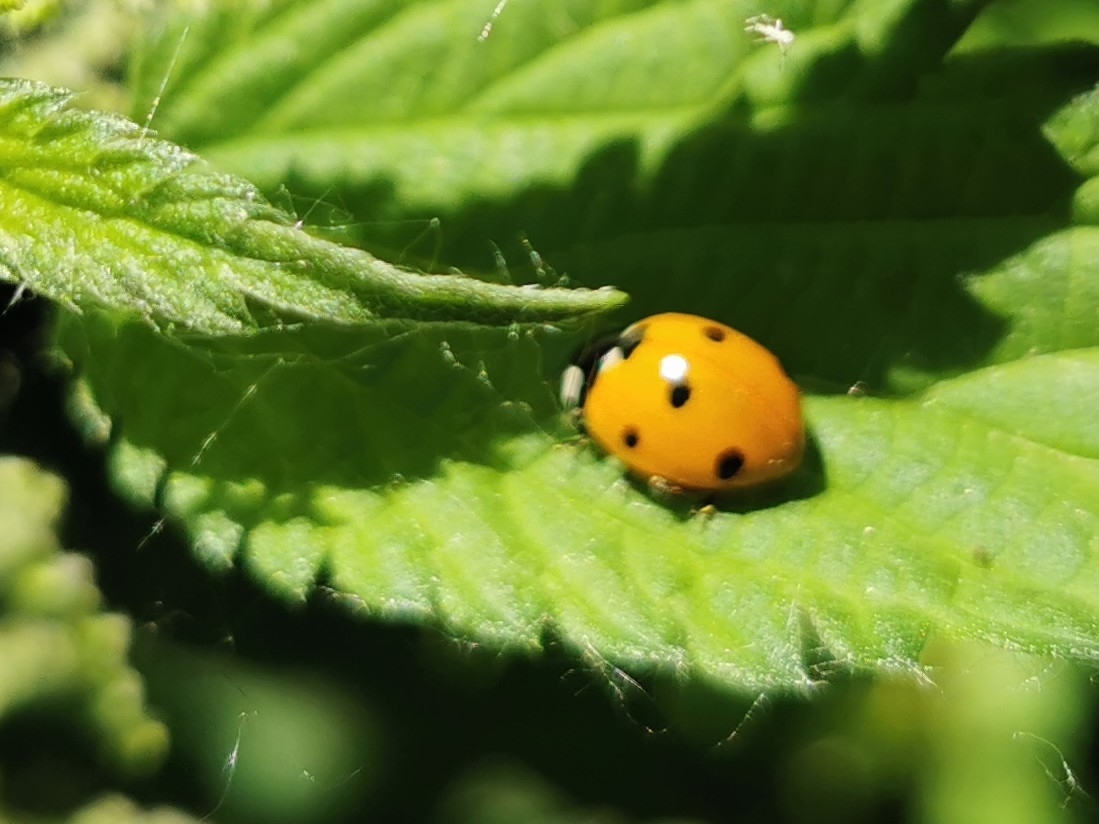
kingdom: Animalia
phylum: Arthropoda
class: Insecta
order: Coleoptera
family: Coccinellidae
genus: Coccinella
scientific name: Coccinella septempunctata
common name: Sevenspotted lady beetle
